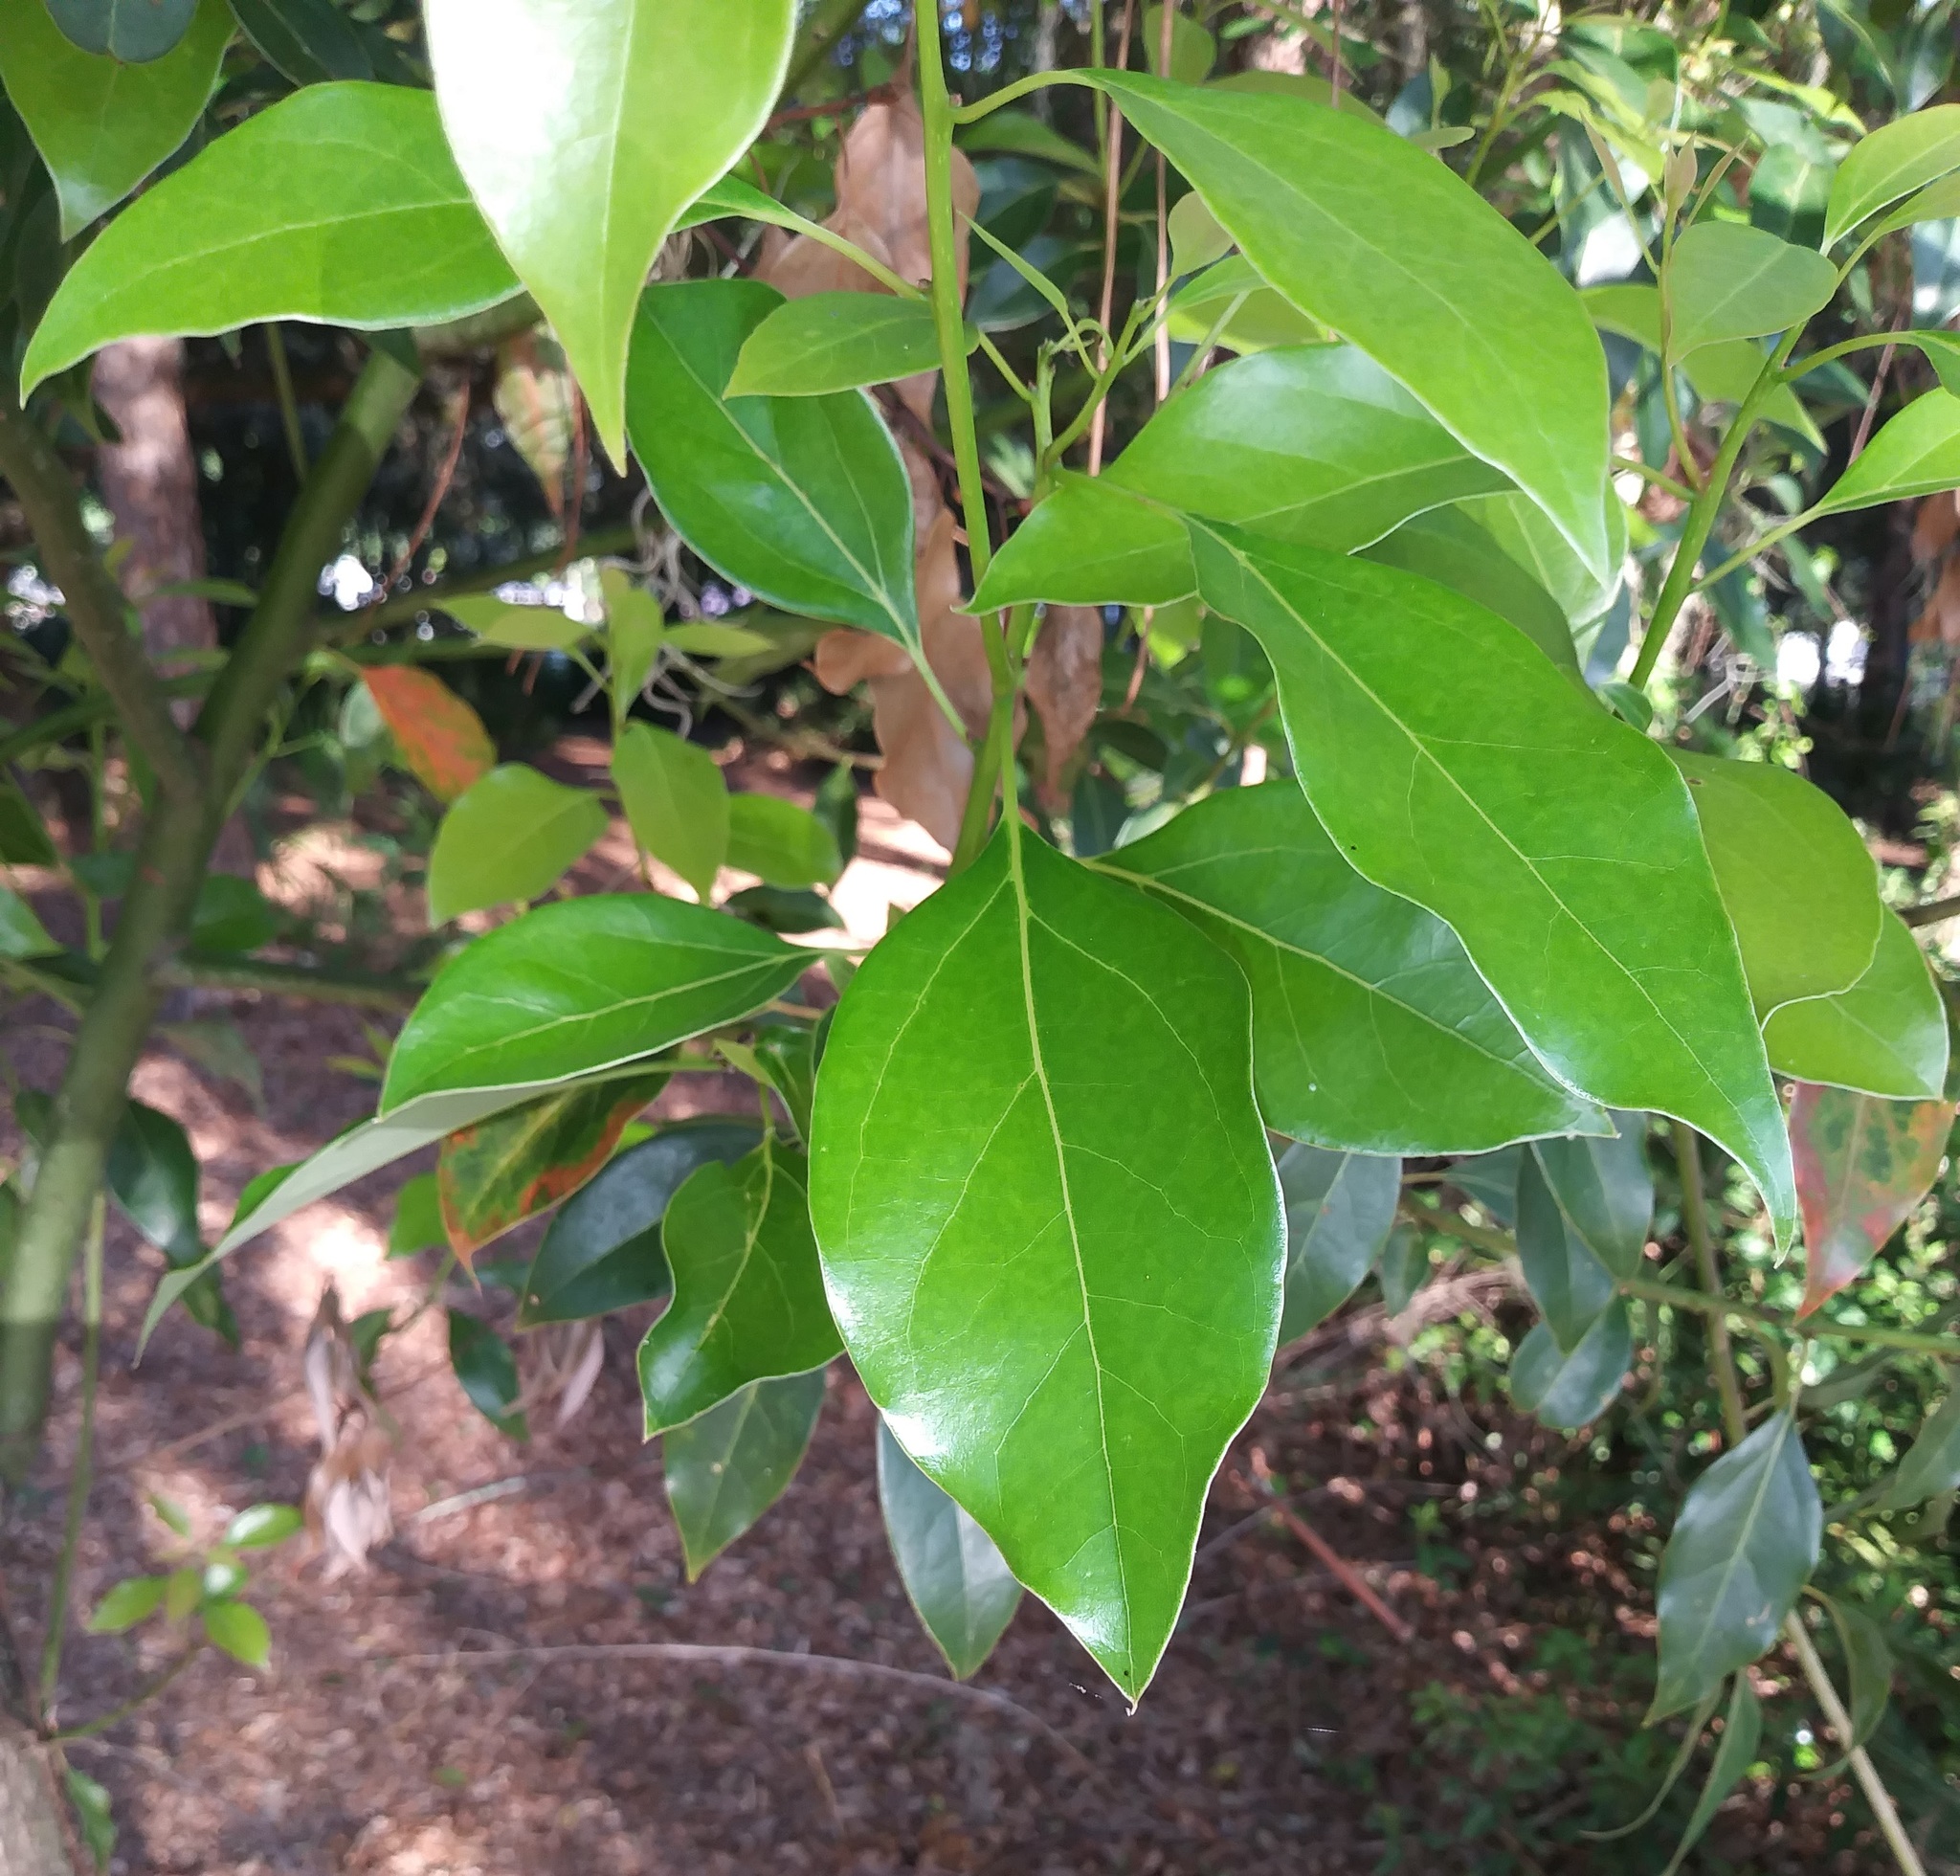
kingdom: Plantae
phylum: Tracheophyta
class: Magnoliopsida
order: Laurales
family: Lauraceae
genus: Cinnamomum
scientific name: Cinnamomum camphora
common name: Camphortree
